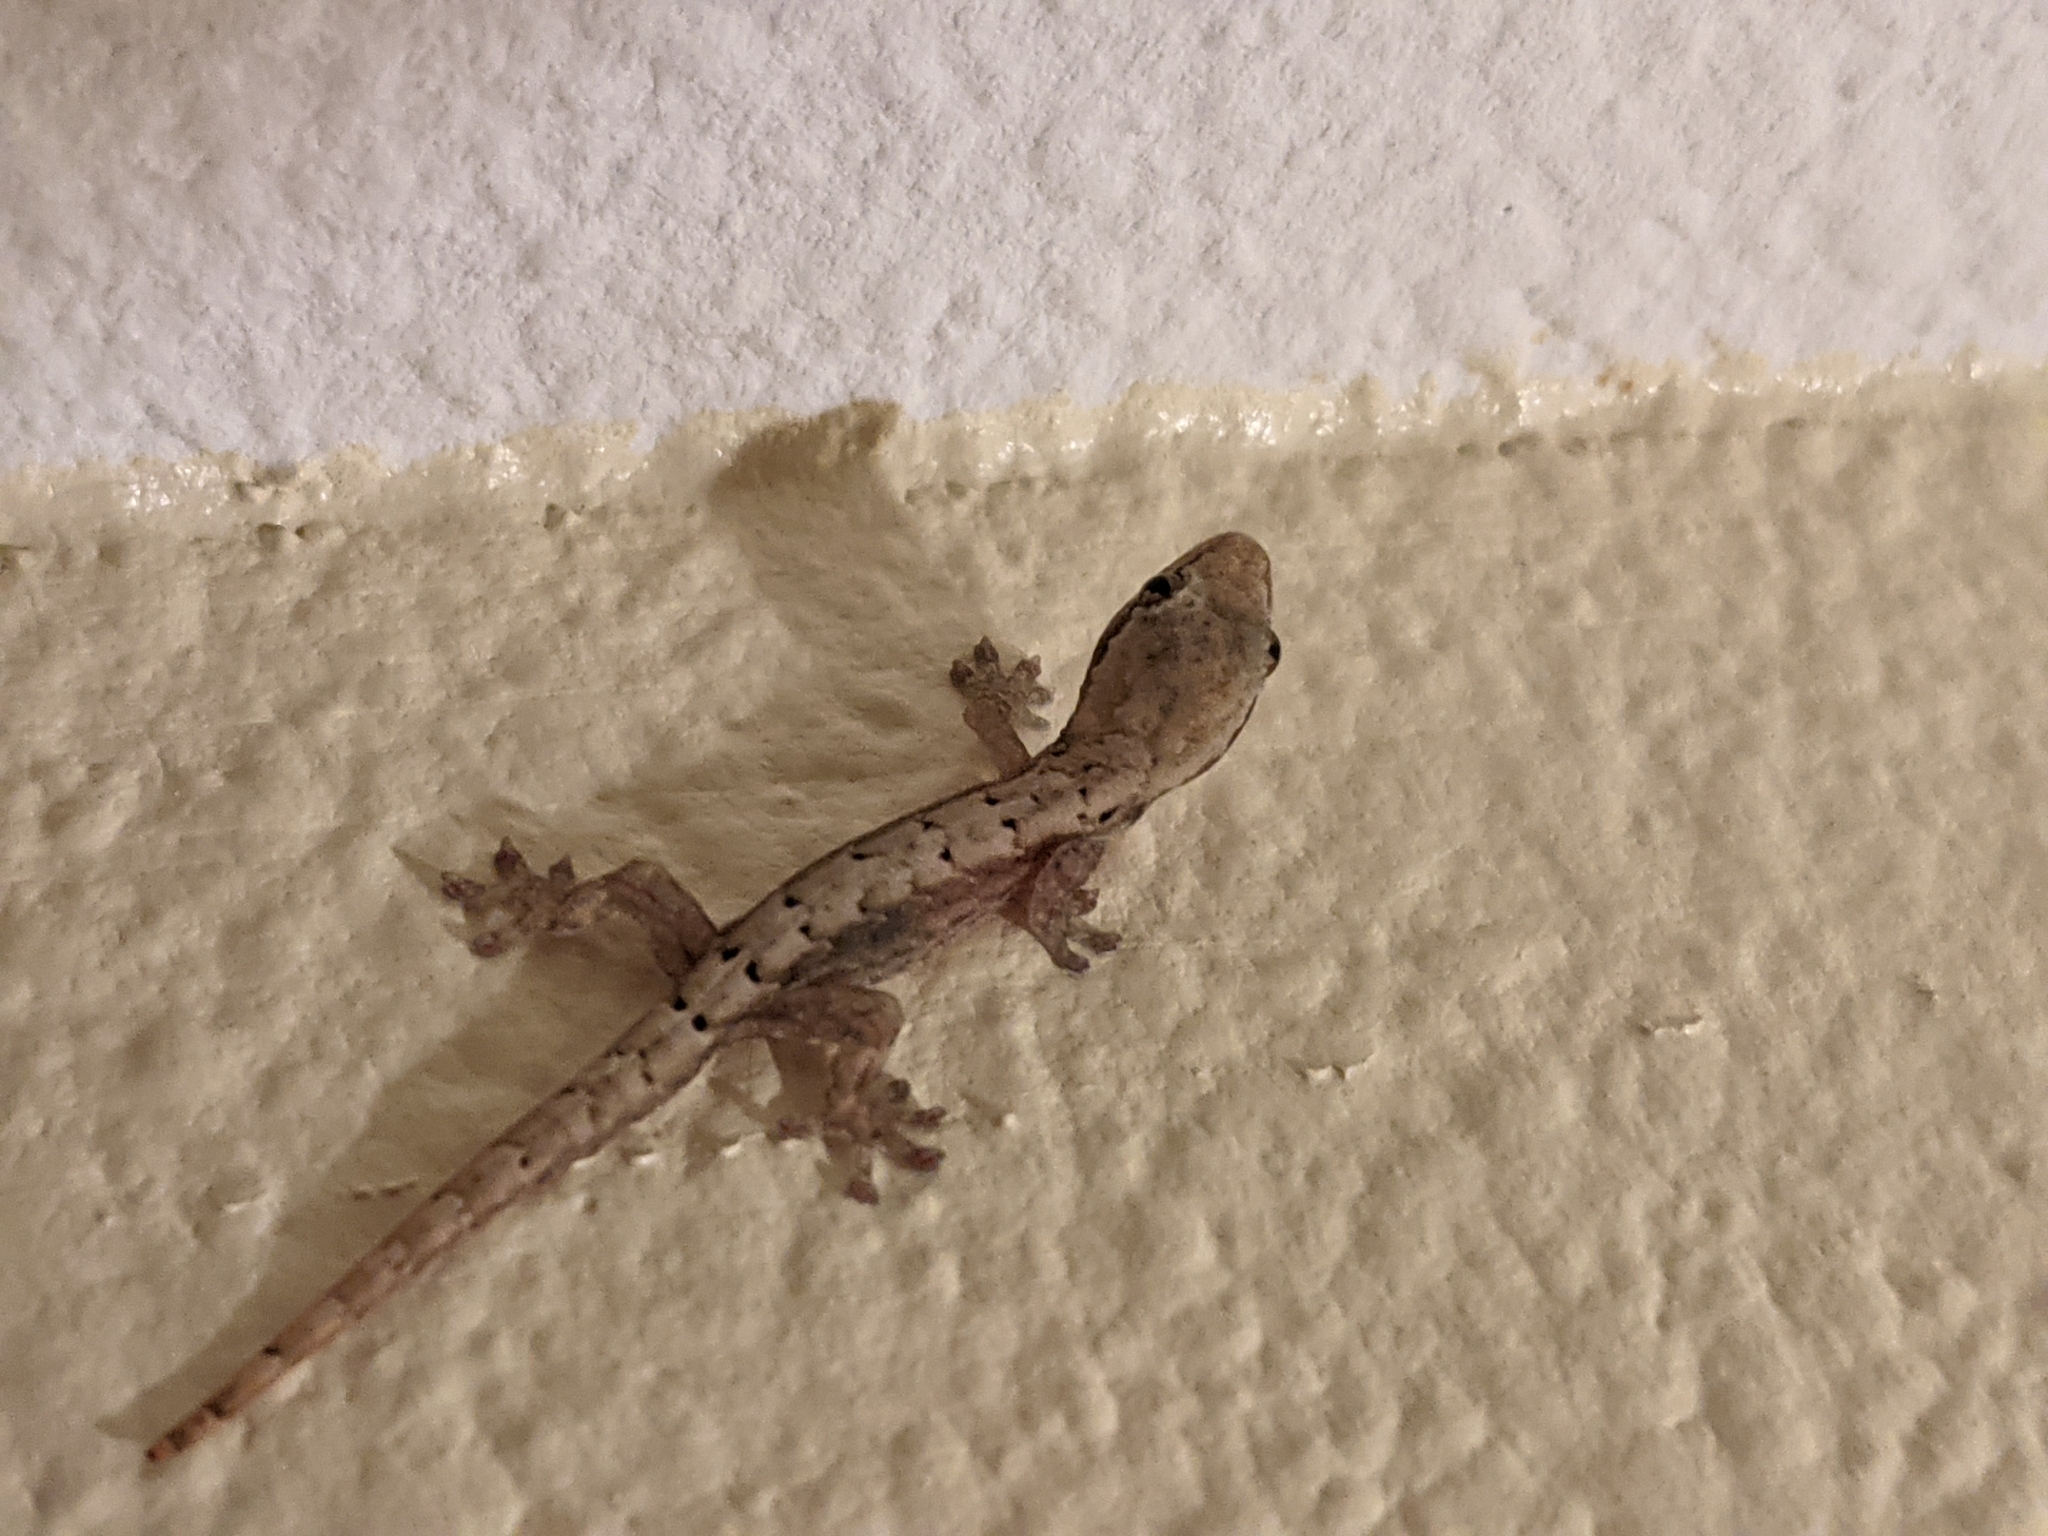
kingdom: Animalia
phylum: Chordata
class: Squamata
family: Gekkonidae
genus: Lepidodactylus
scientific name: Lepidodactylus lugubris
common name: Mourning gecko
